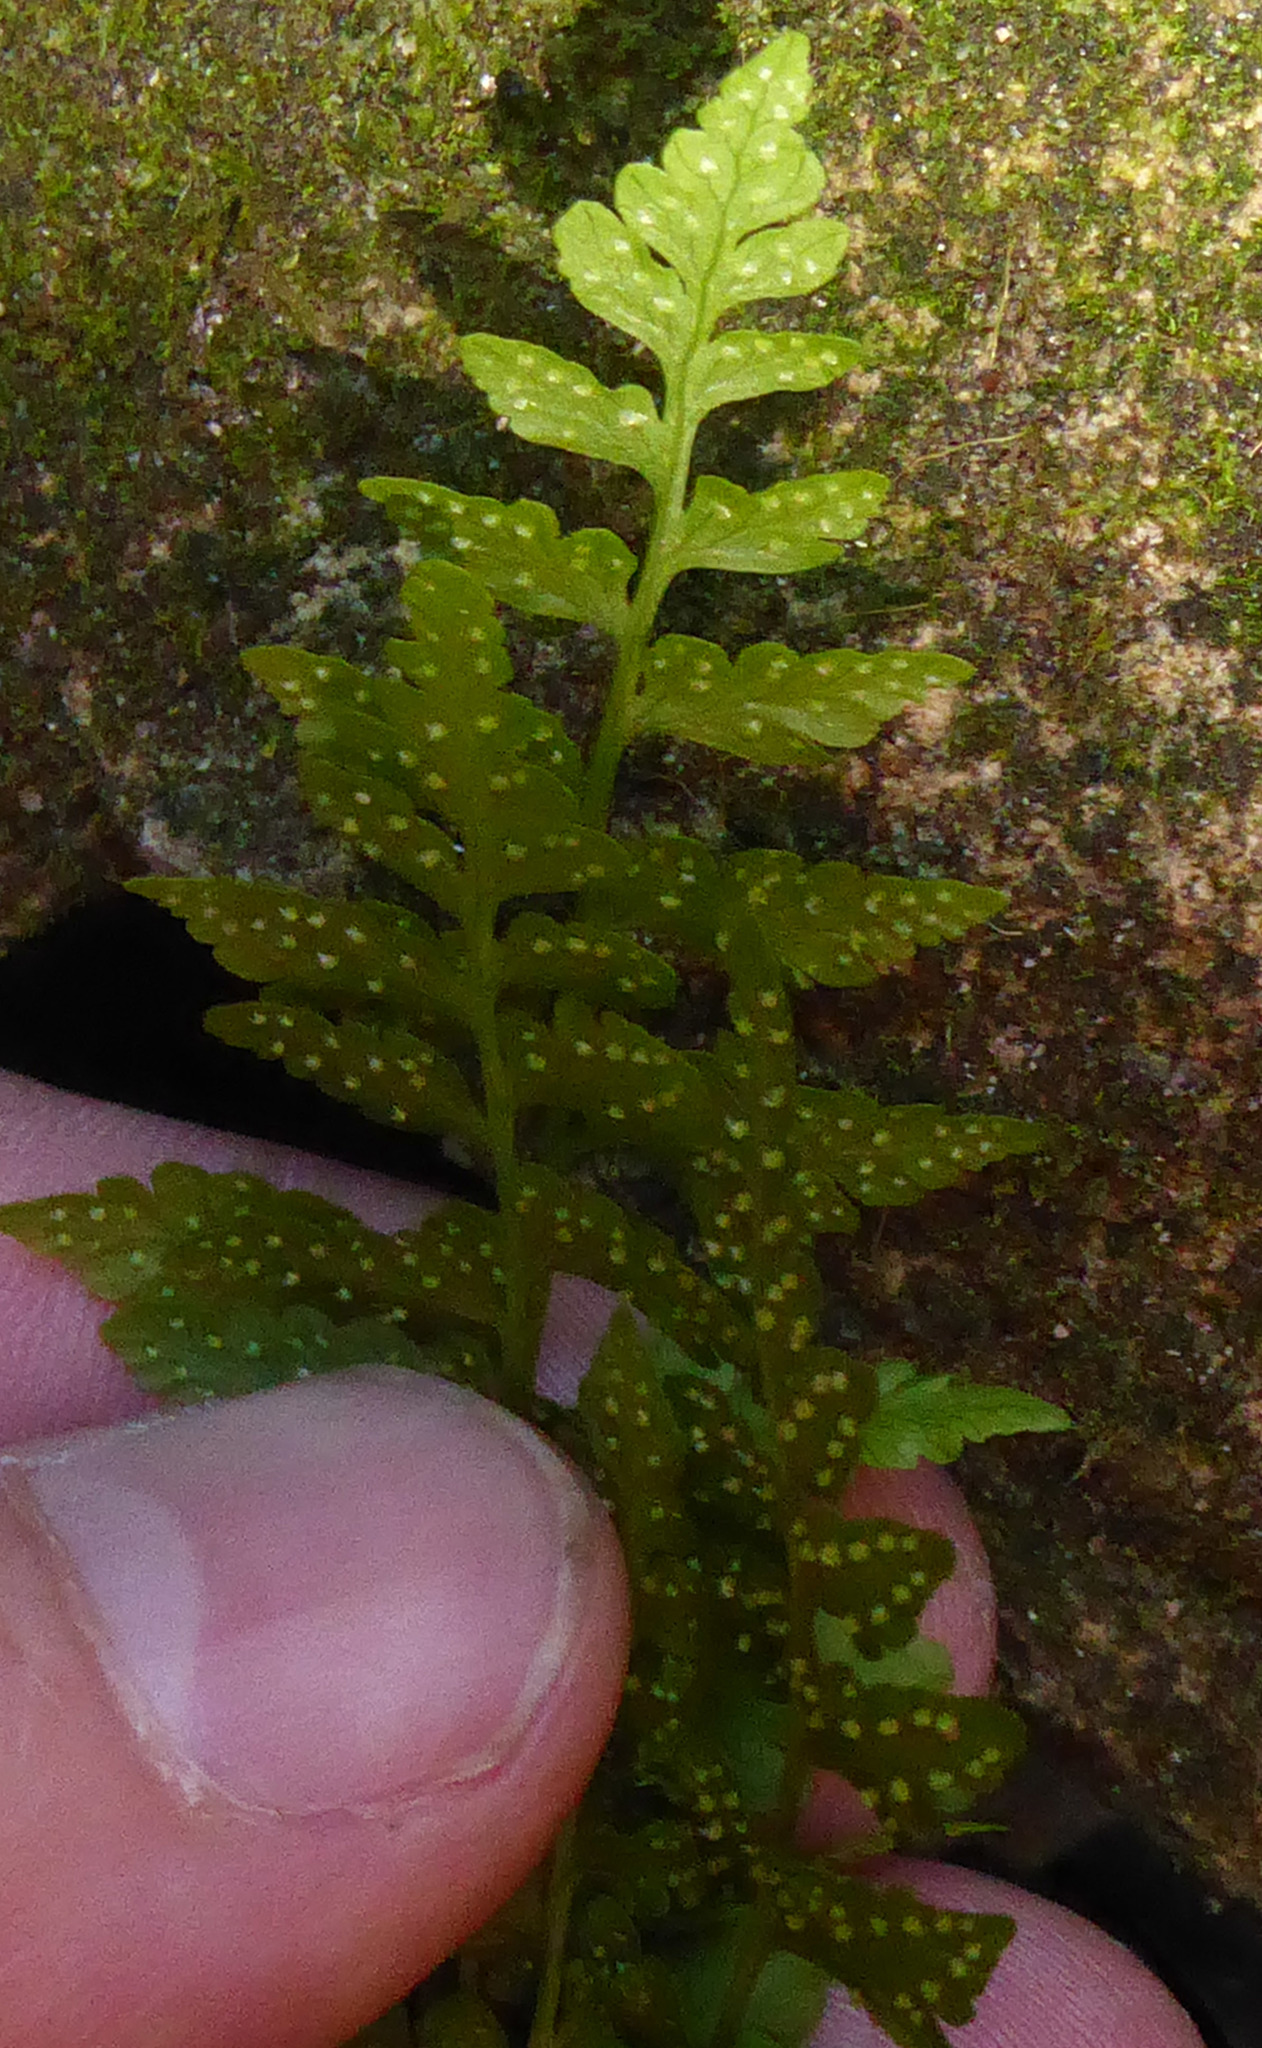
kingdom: Plantae
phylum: Tracheophyta
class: Polypodiopsida
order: Polypodiales
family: Cystopteridaceae
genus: Cystopteris
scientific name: Cystopteris tasmanica
